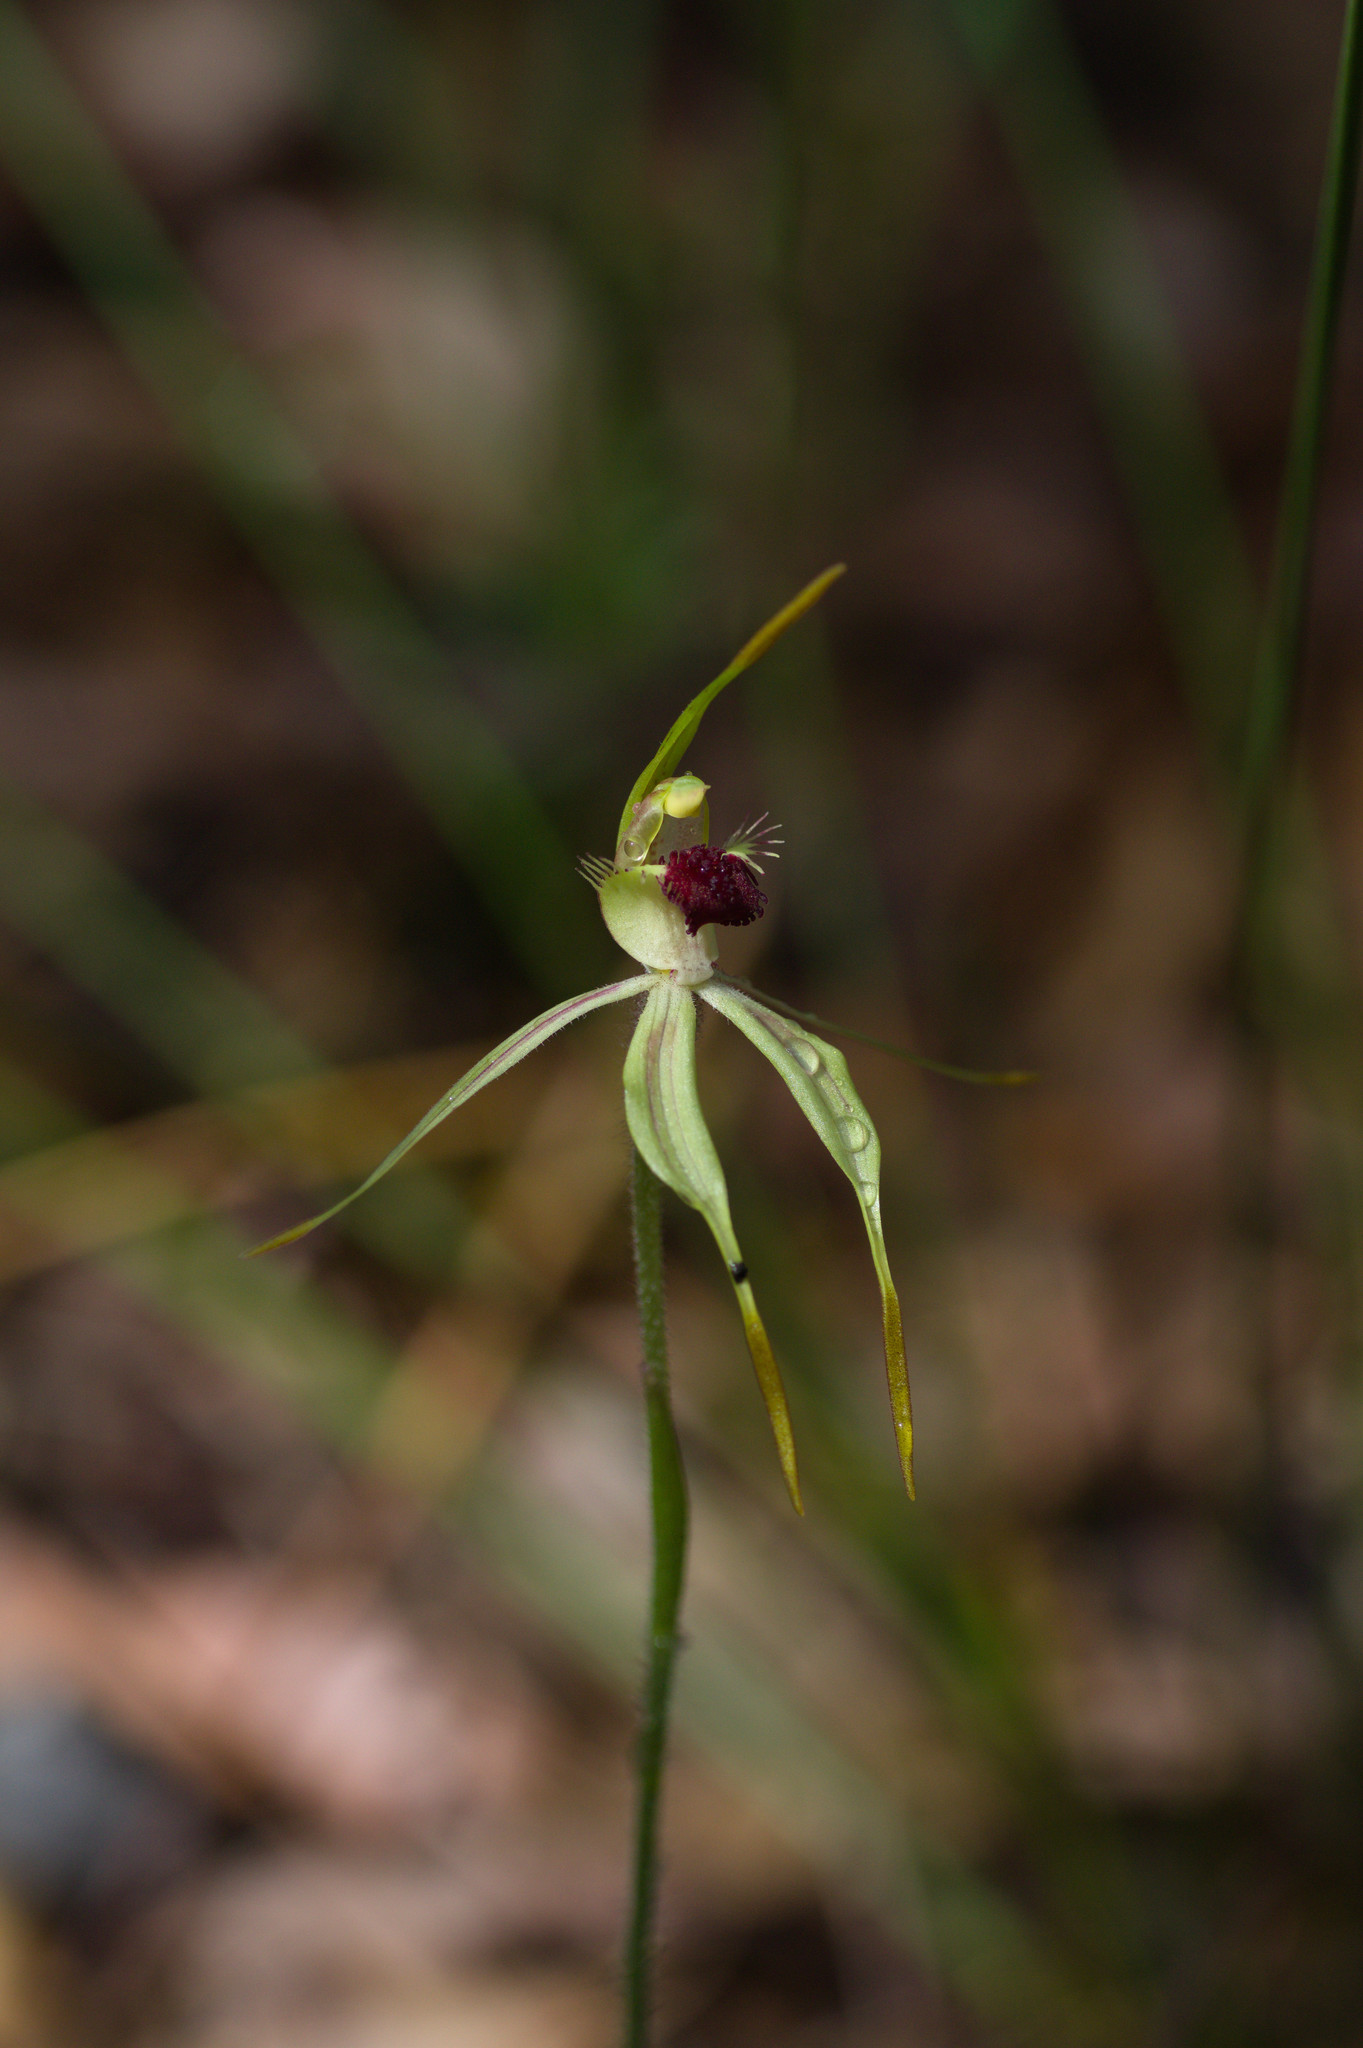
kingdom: Plantae
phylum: Tracheophyta
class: Liliopsida
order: Asparagales
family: Orchidaceae
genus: Caladenia
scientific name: Caladenia longiclavata
